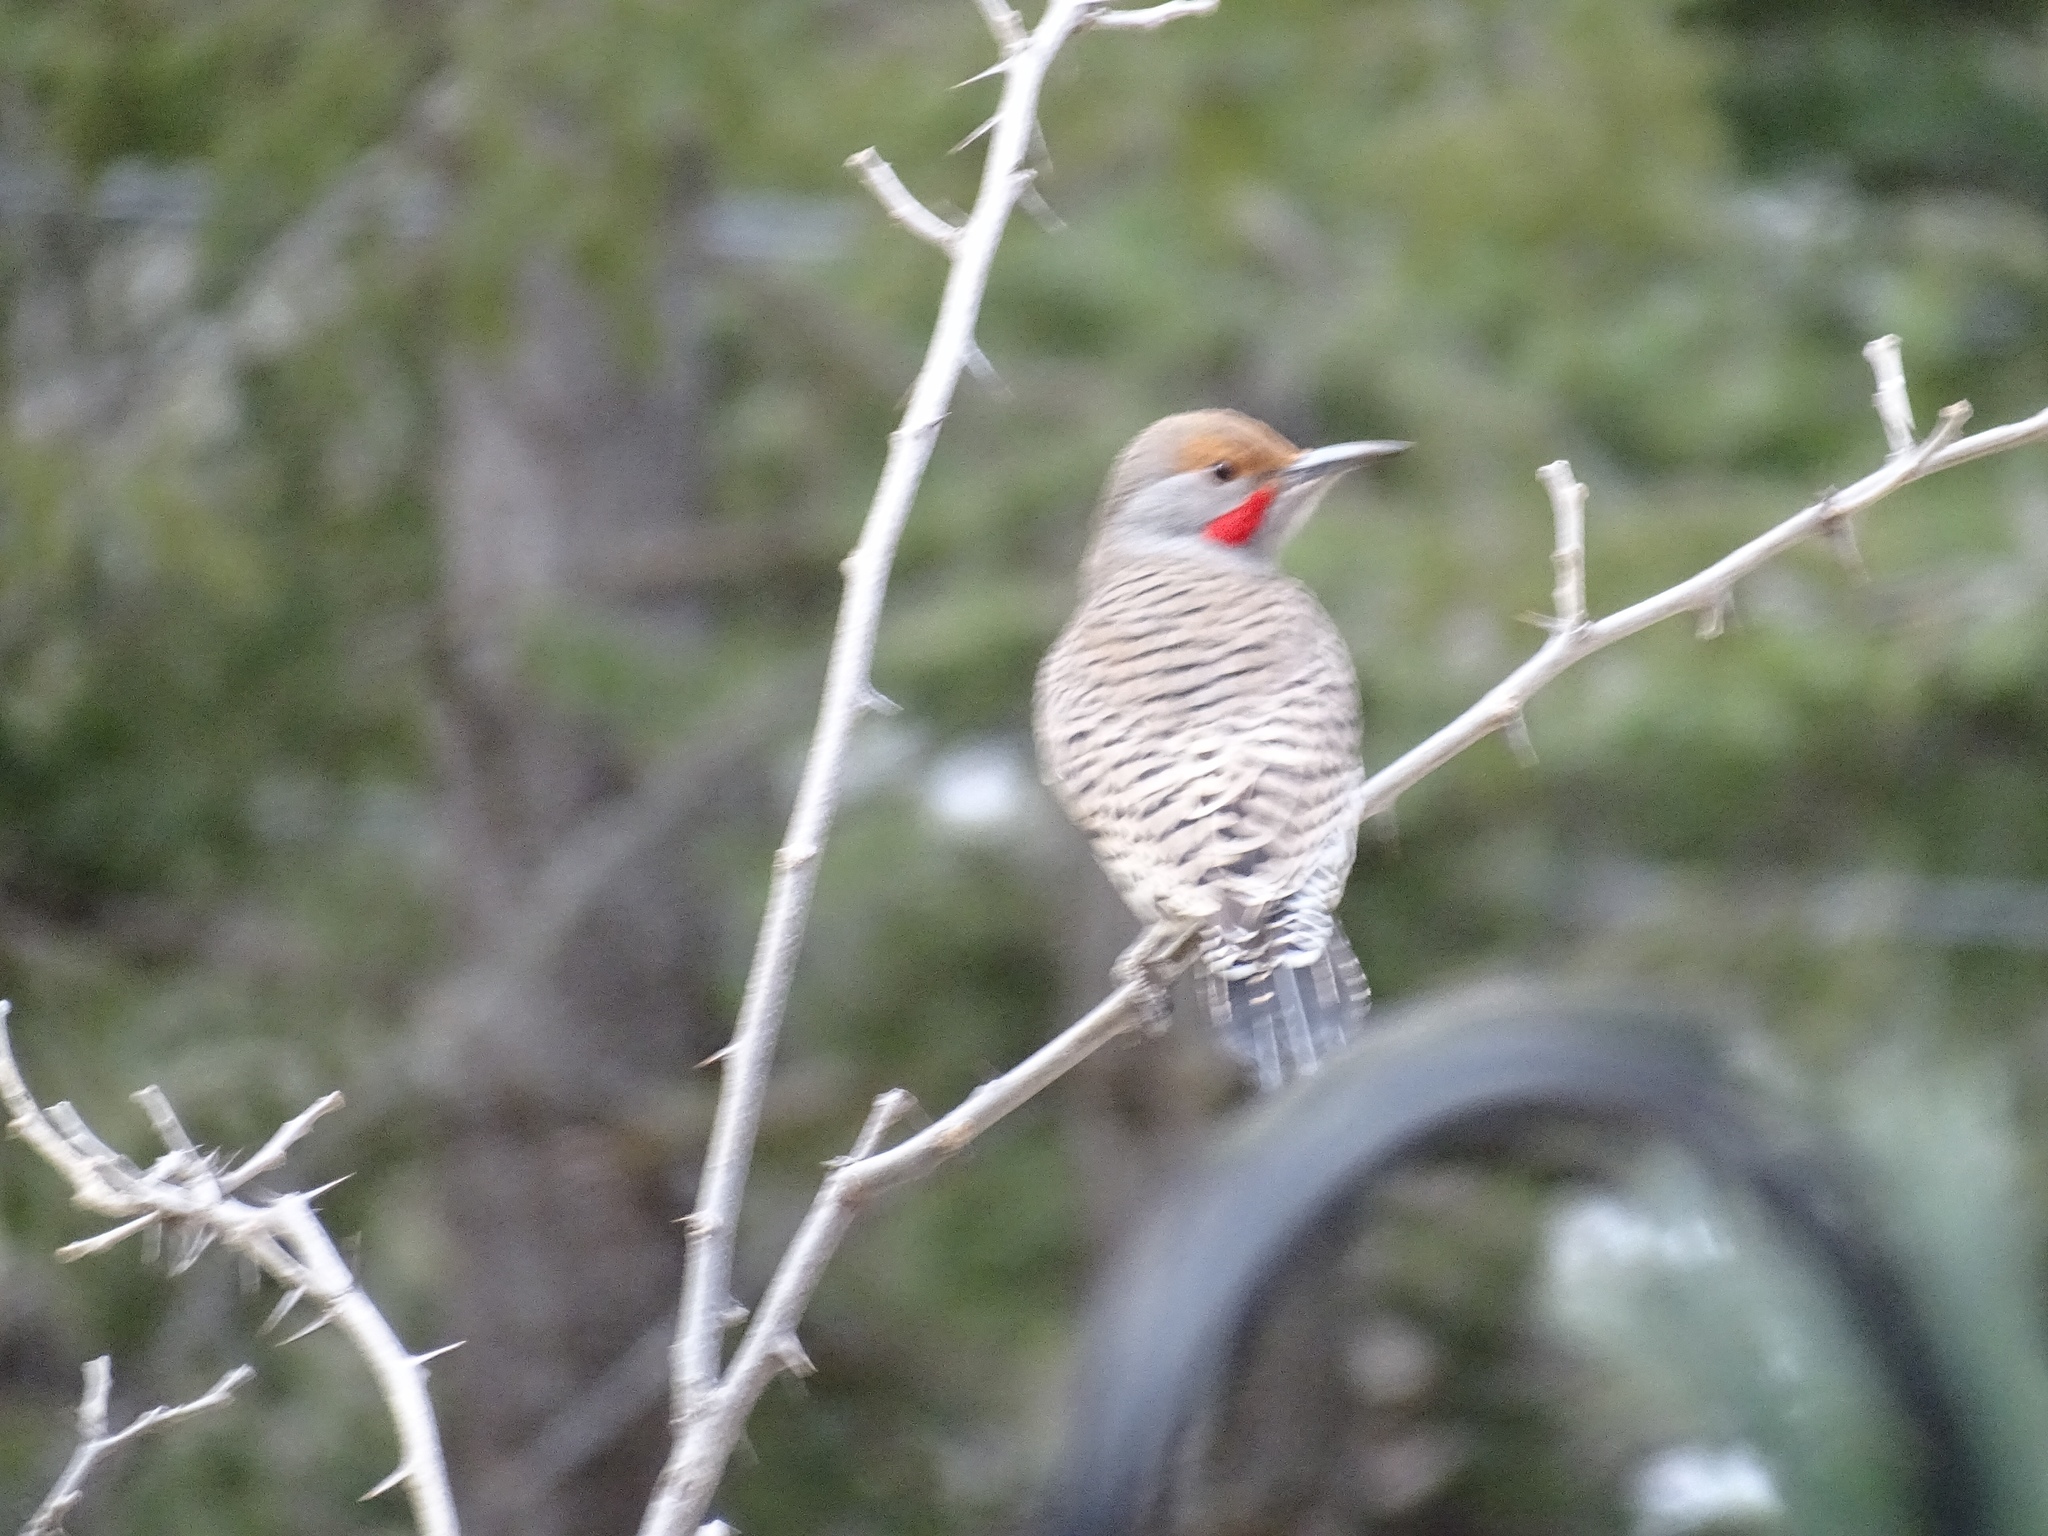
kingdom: Animalia
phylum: Chordata
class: Aves
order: Piciformes
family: Picidae
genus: Colaptes
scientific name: Colaptes auratus
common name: Northern flicker
